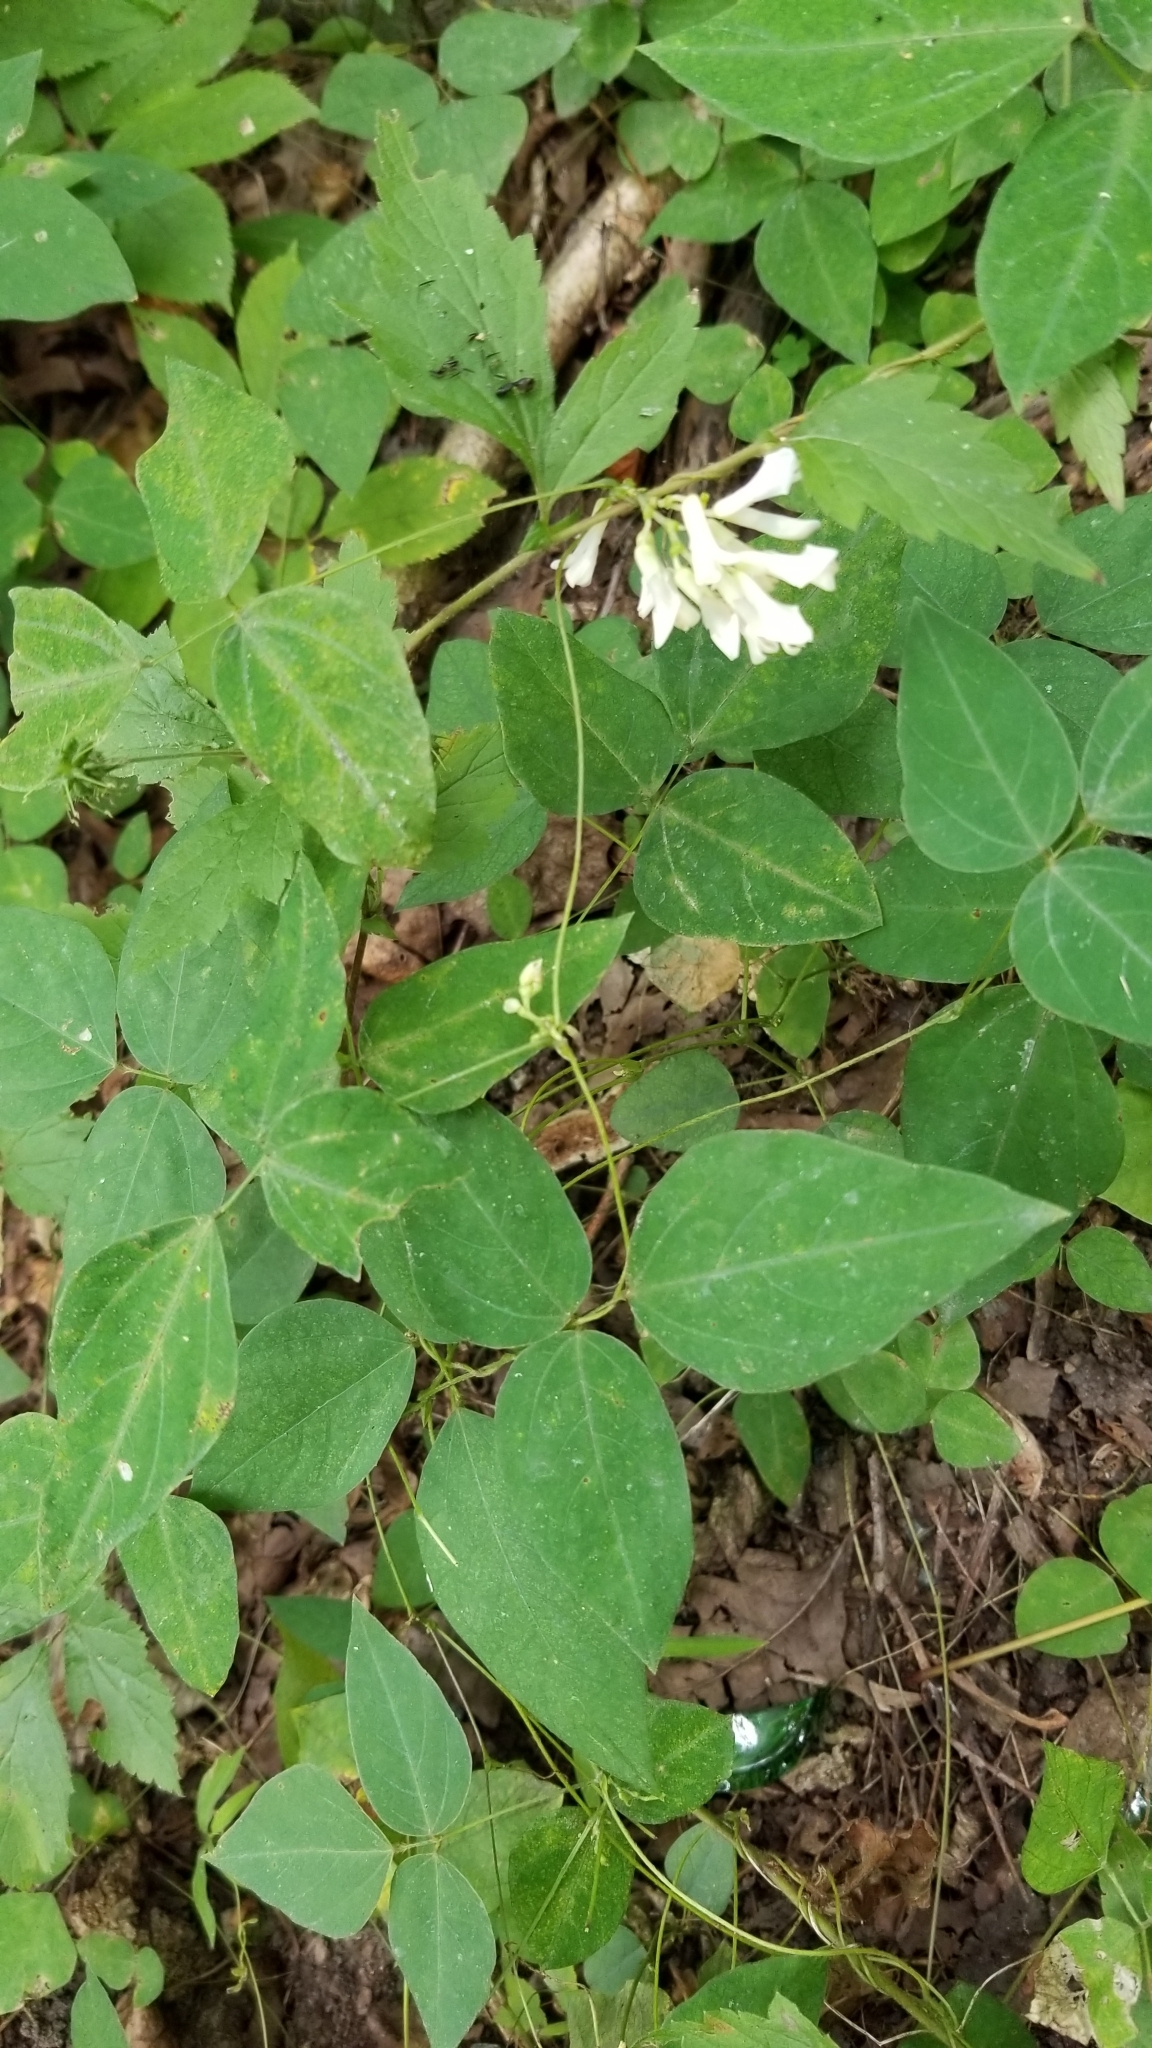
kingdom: Plantae
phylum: Tracheophyta
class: Magnoliopsida
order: Fabales
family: Fabaceae
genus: Amphicarpaea
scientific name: Amphicarpaea bracteata
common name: American hog peanut
